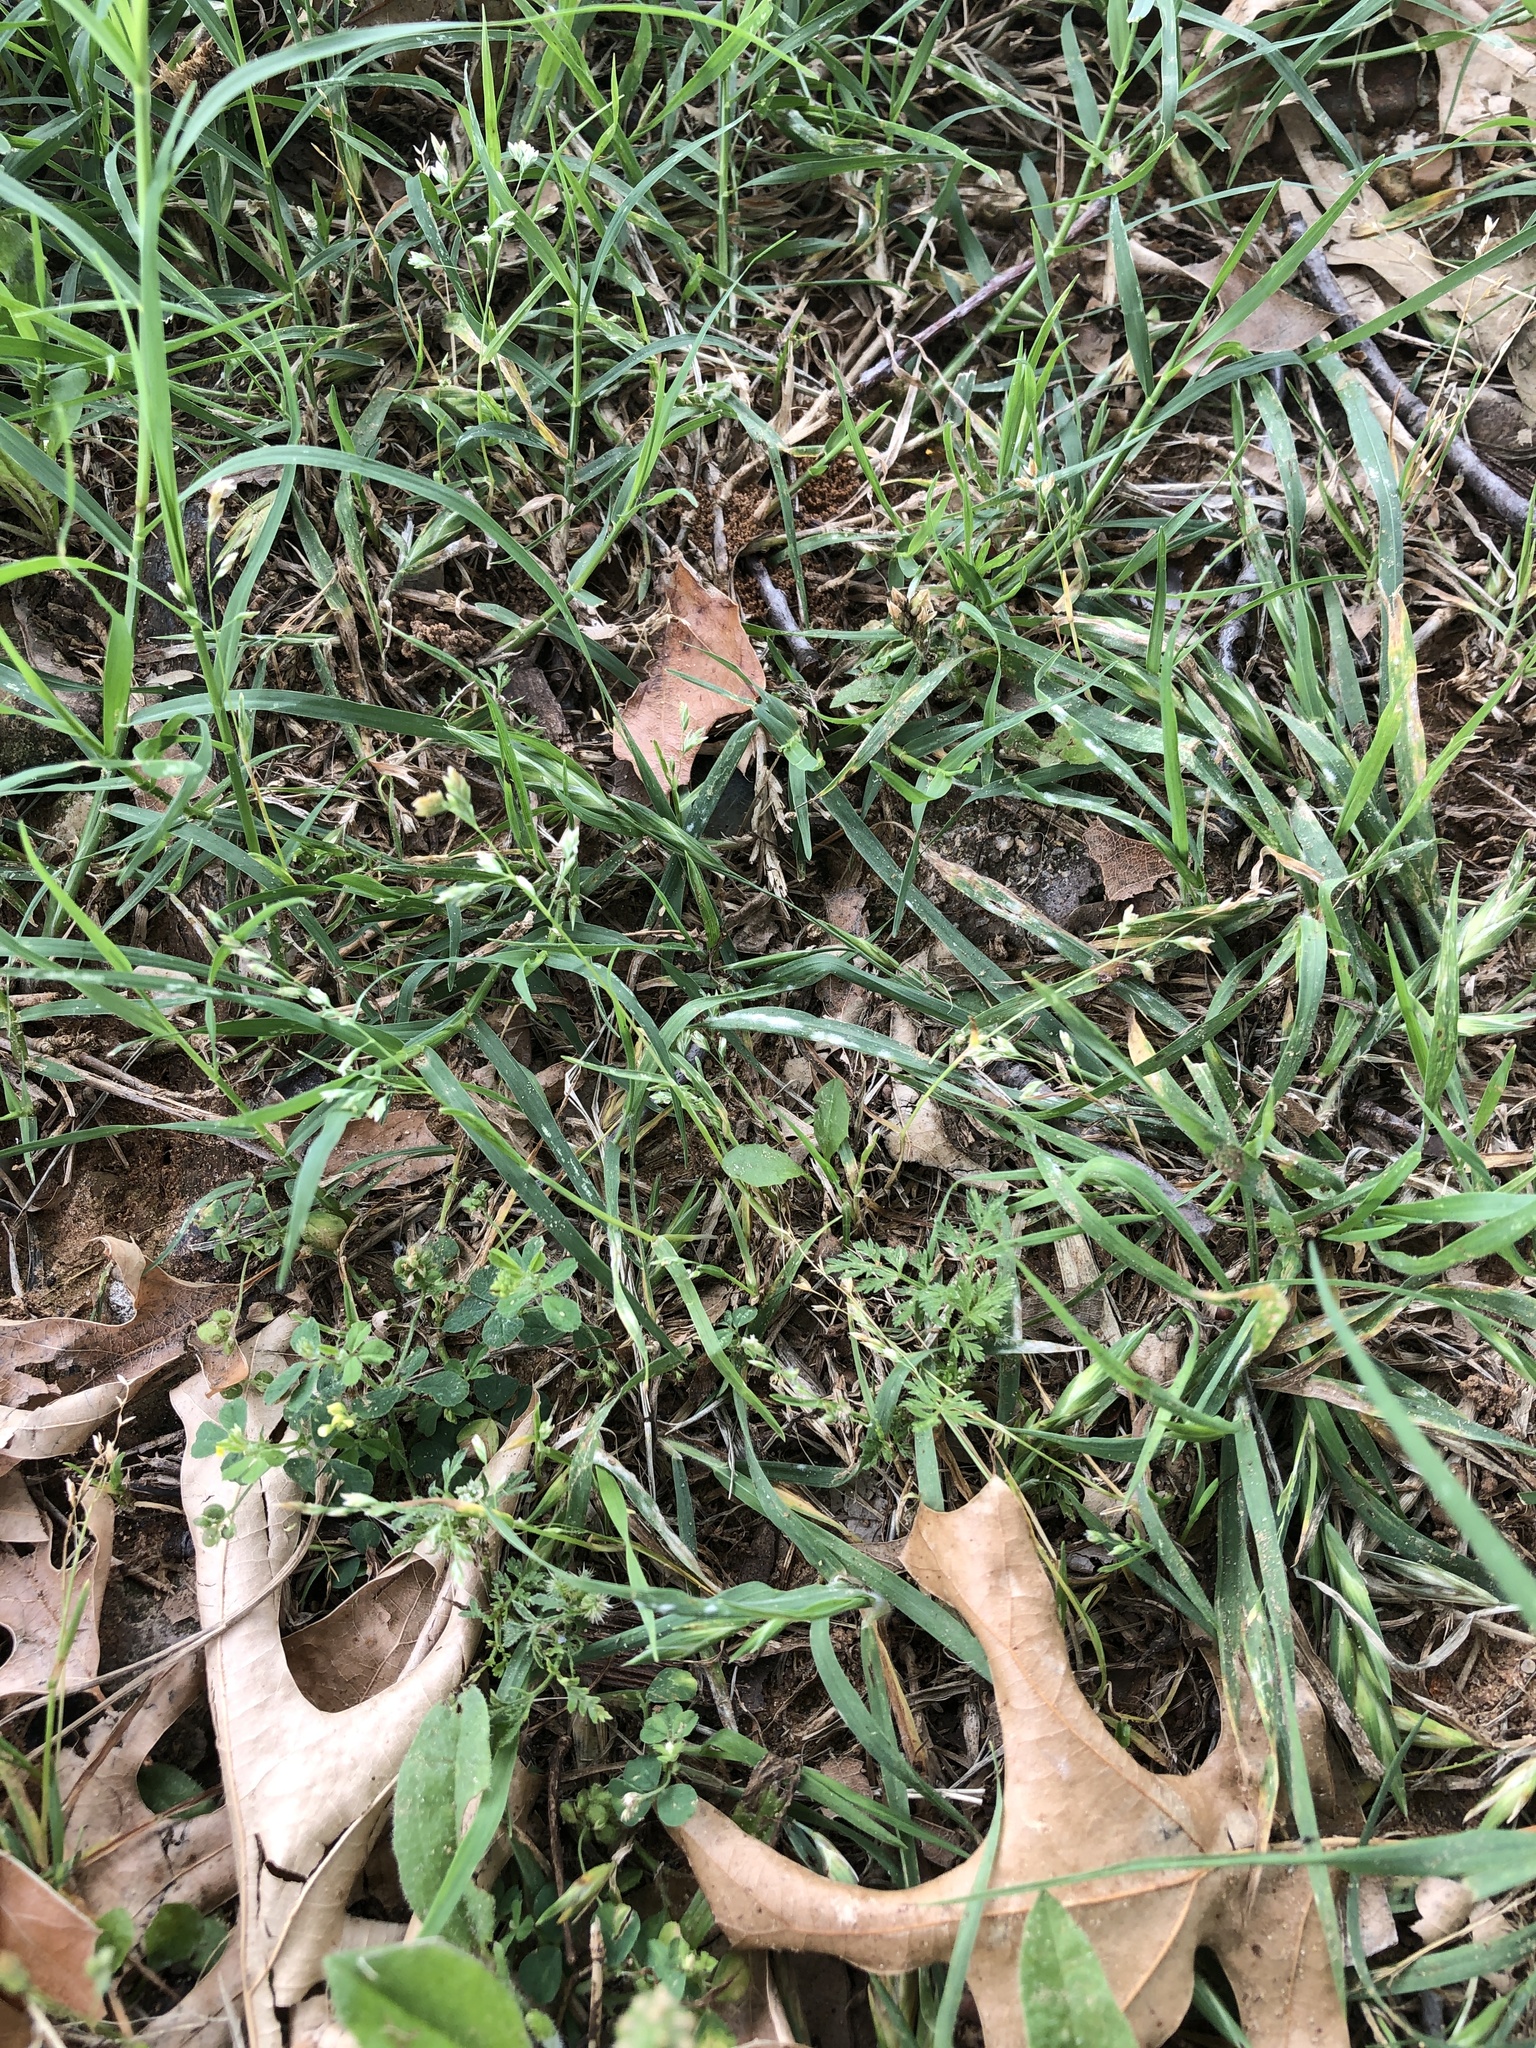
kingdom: Plantae
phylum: Tracheophyta
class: Liliopsida
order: Poales
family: Poaceae
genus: Poa
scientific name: Poa annua
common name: Annual bluegrass
